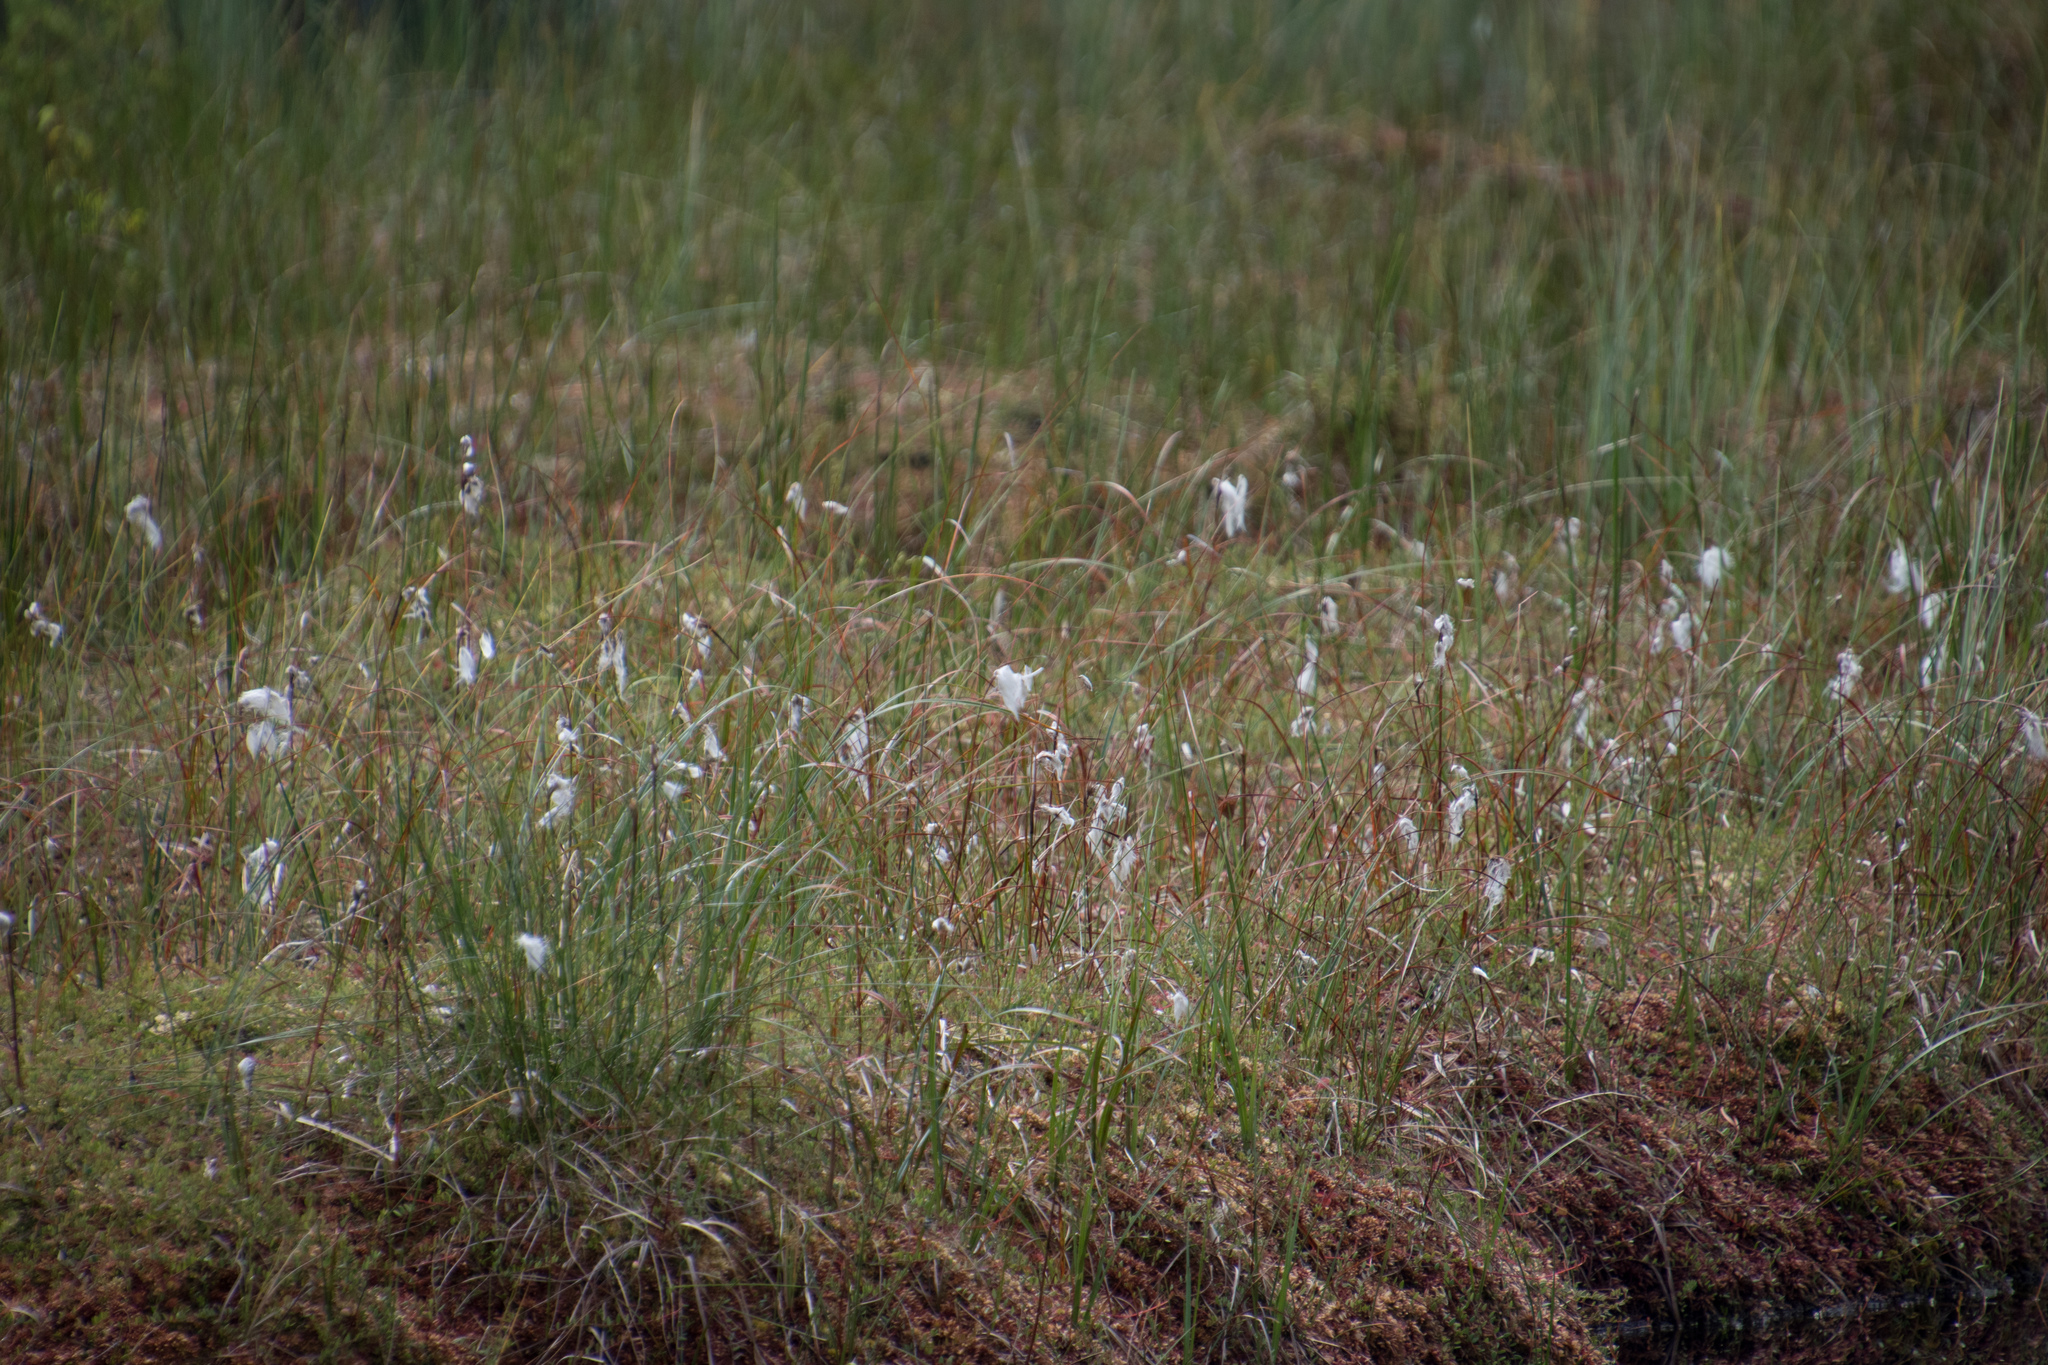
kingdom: Plantae
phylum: Tracheophyta
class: Liliopsida
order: Poales
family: Cyperaceae
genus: Eriophorum
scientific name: Eriophorum angustifolium
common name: Common cottongrass
